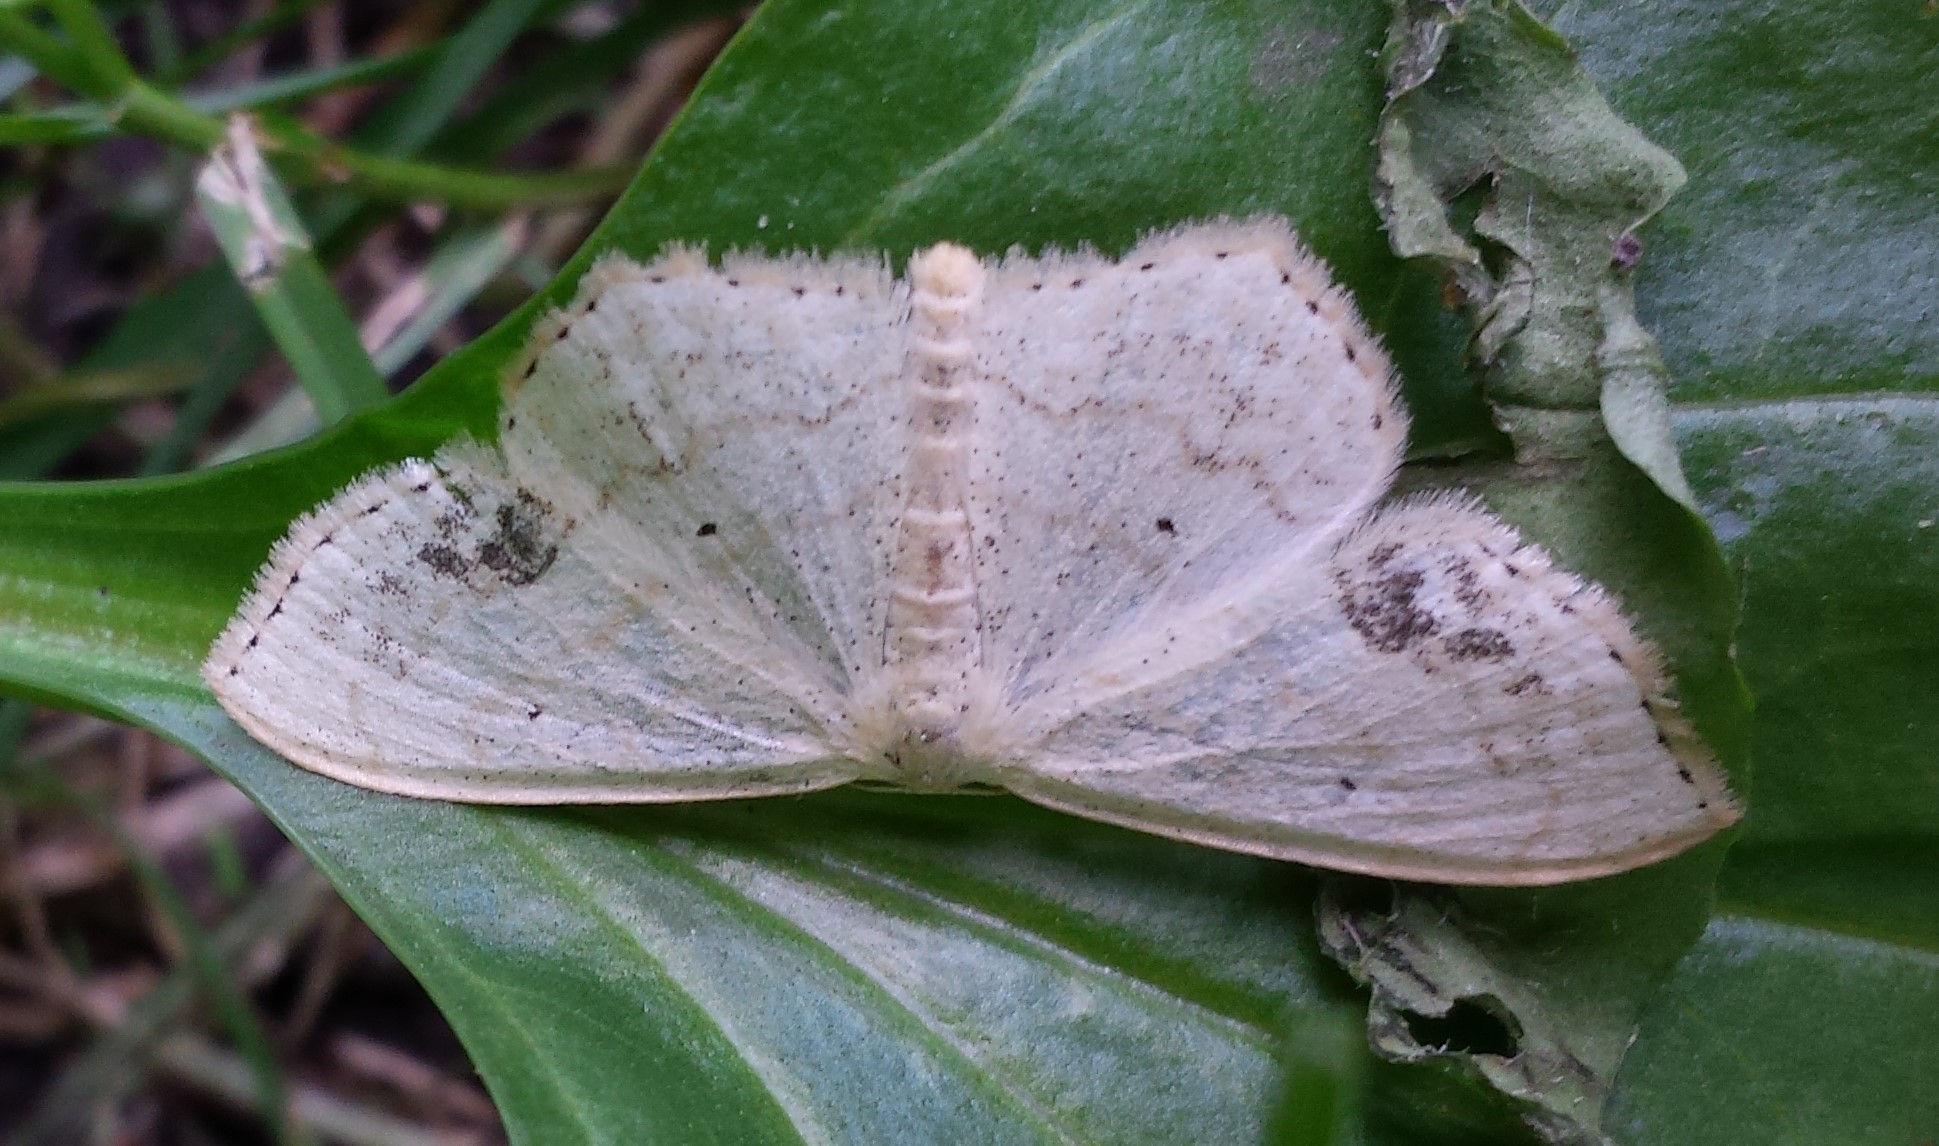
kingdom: Animalia
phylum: Arthropoda
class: Insecta
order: Lepidoptera
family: Geometridae
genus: Scopula
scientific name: Scopula limboundata
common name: Large lace border
